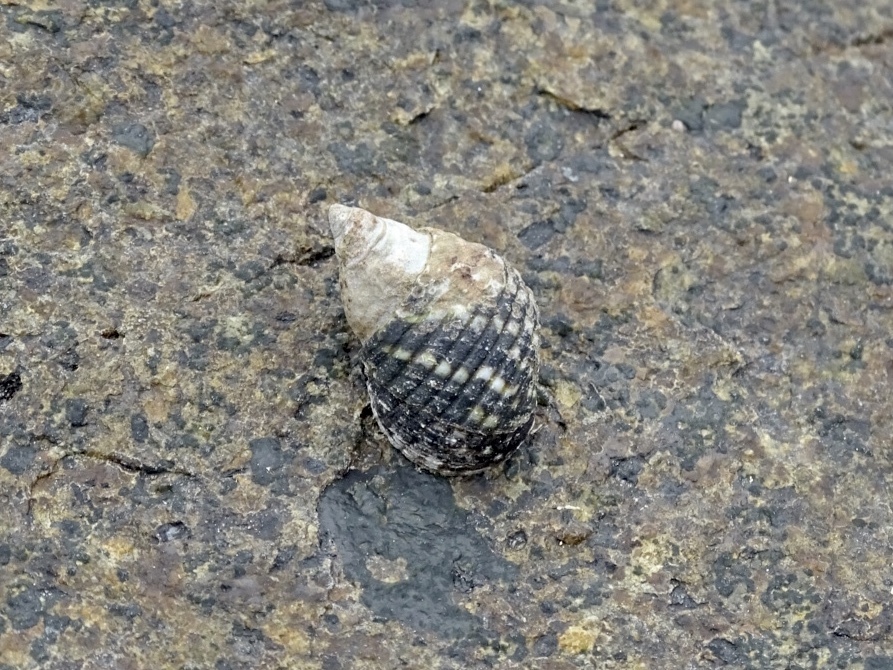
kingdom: Animalia
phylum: Mollusca
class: Gastropoda
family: Planaxidae
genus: Planaxis
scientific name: Planaxis sulcatus
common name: Furrowed planaxis
